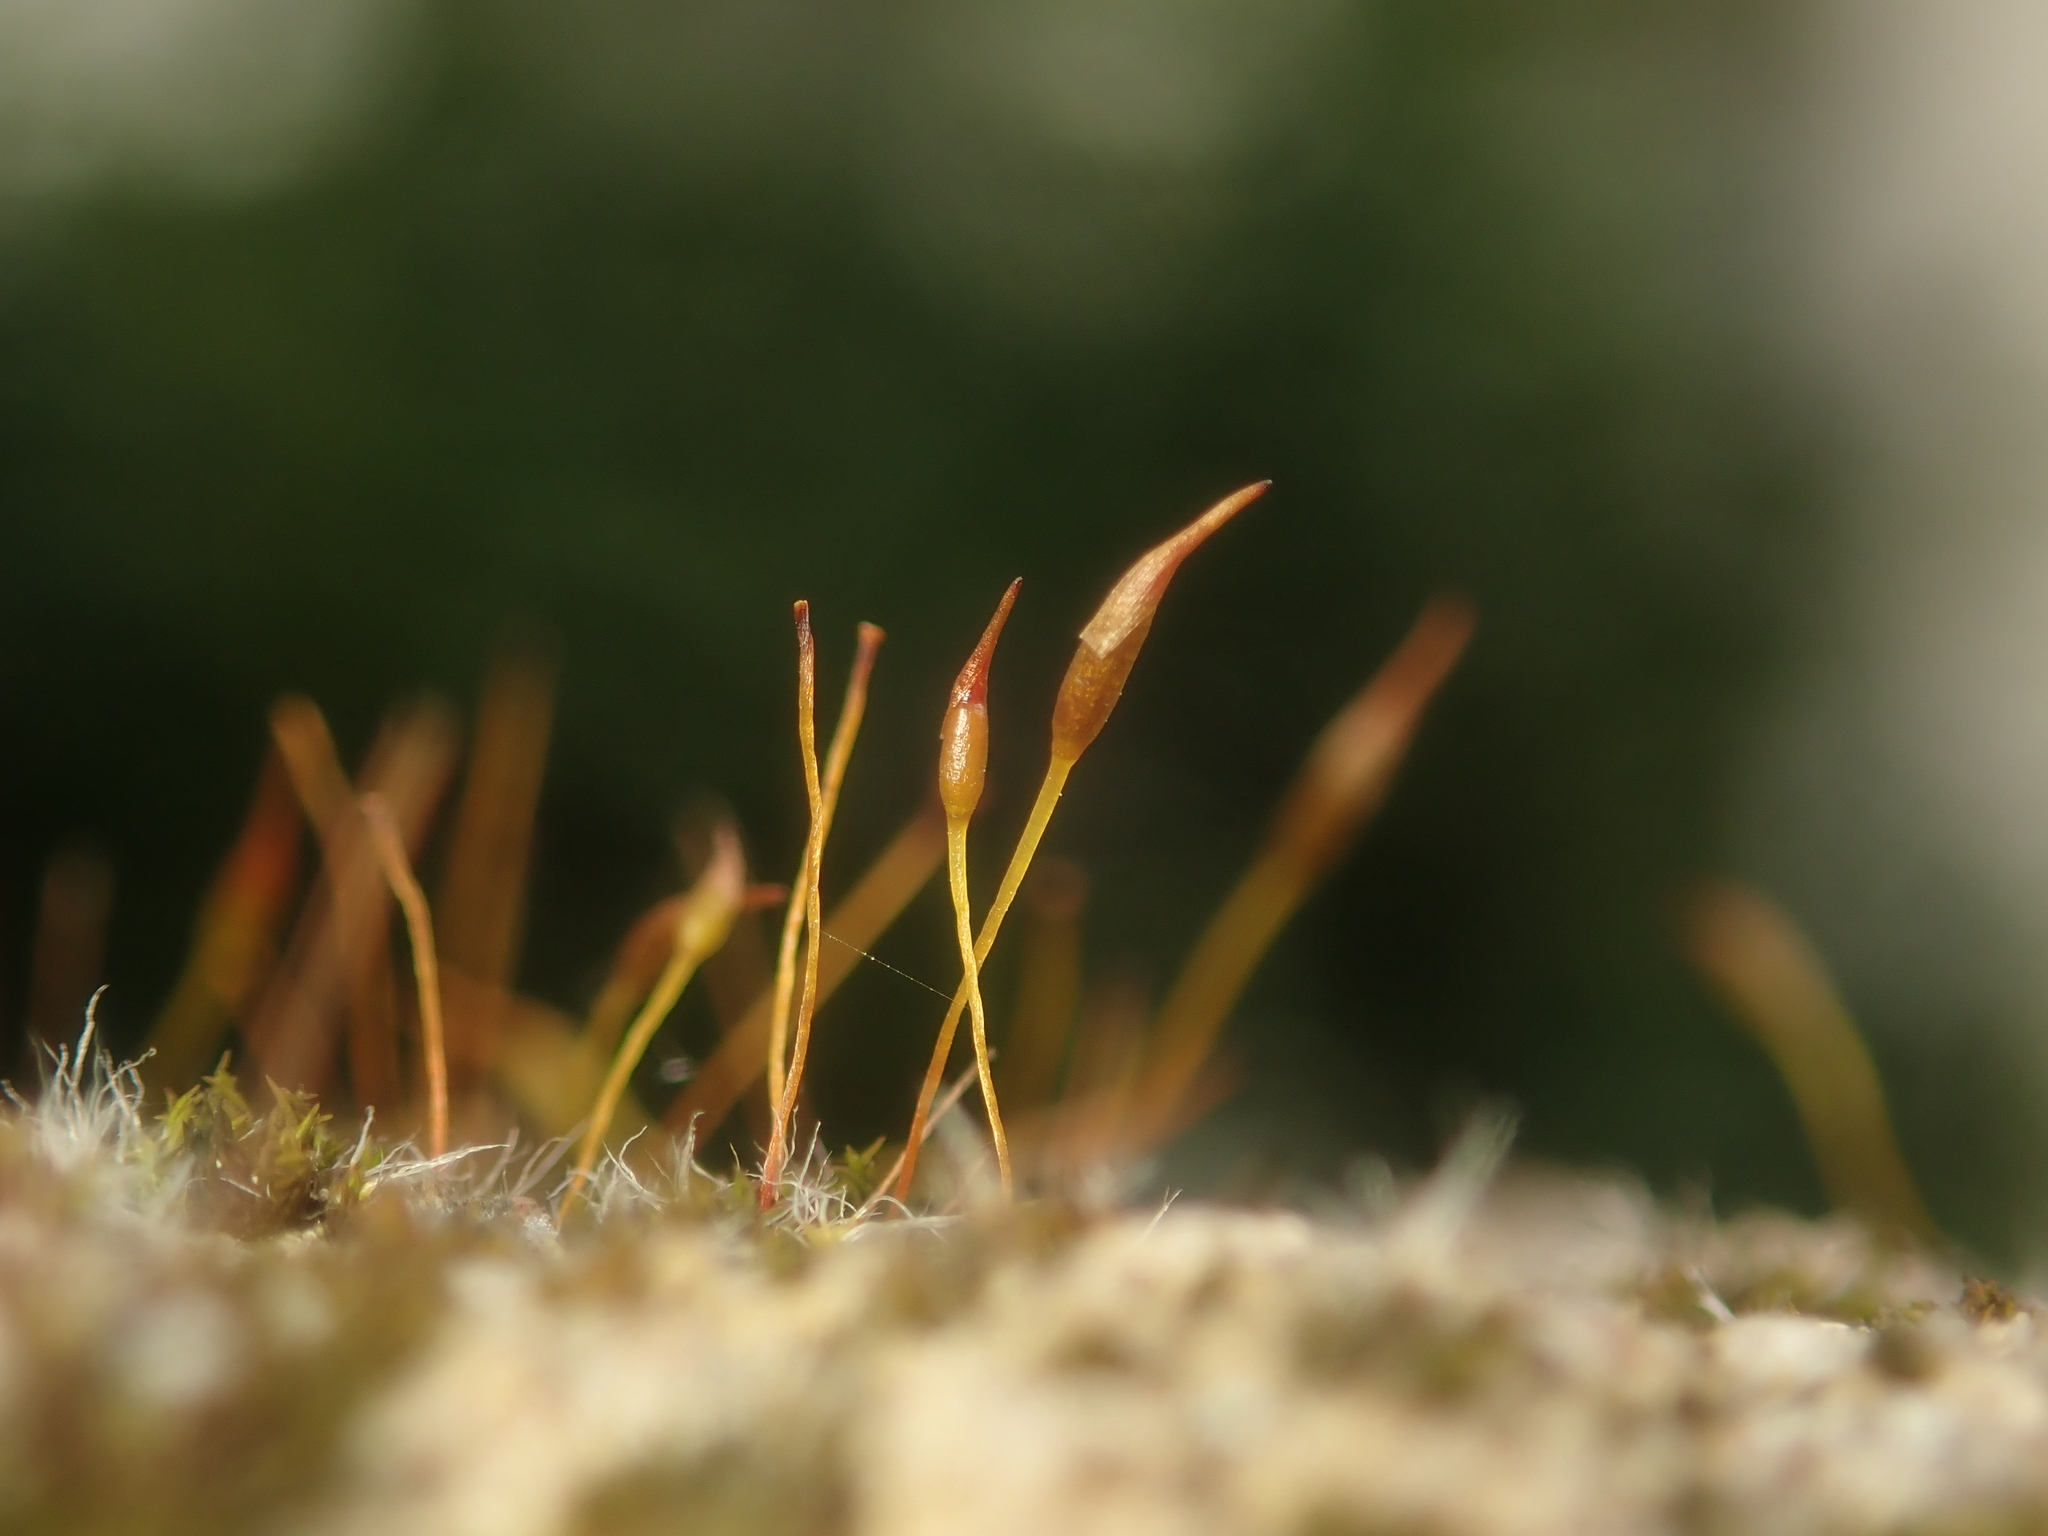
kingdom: Plantae
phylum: Bryophyta
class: Bryopsida
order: Pottiales
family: Pottiaceae
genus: Tortula
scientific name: Tortula muralis
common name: Wall screw-moss
